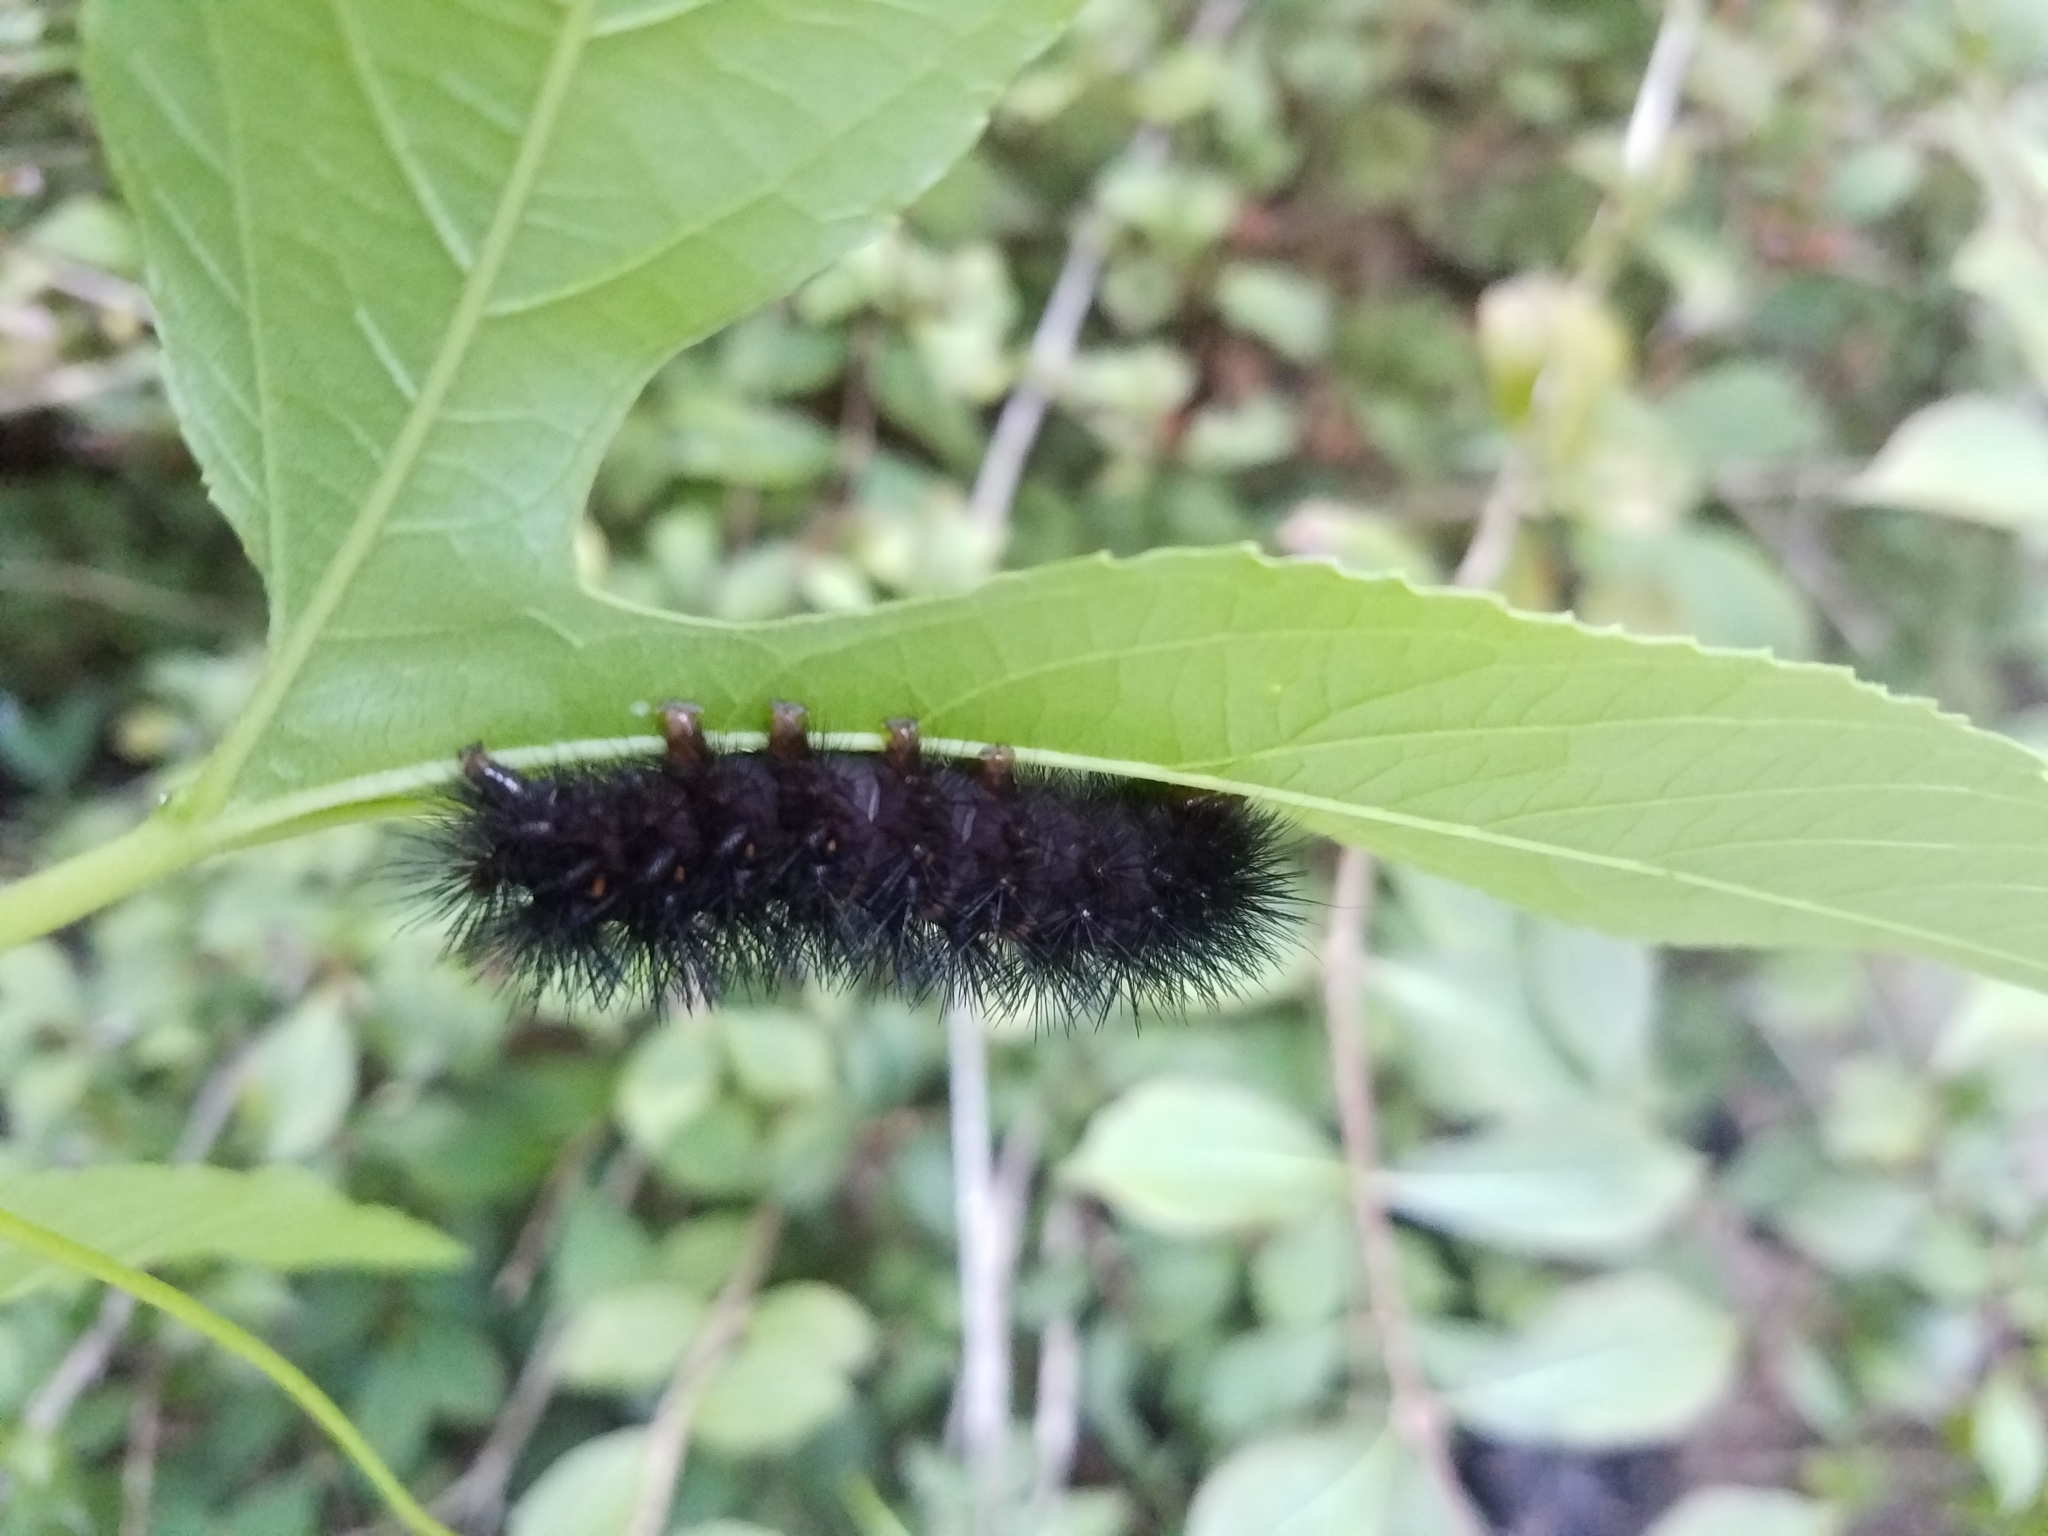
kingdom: Animalia
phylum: Arthropoda
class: Insecta
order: Lepidoptera
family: Erebidae
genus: Hypercompe
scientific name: Hypercompe scribonia
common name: Giant leopard moth
